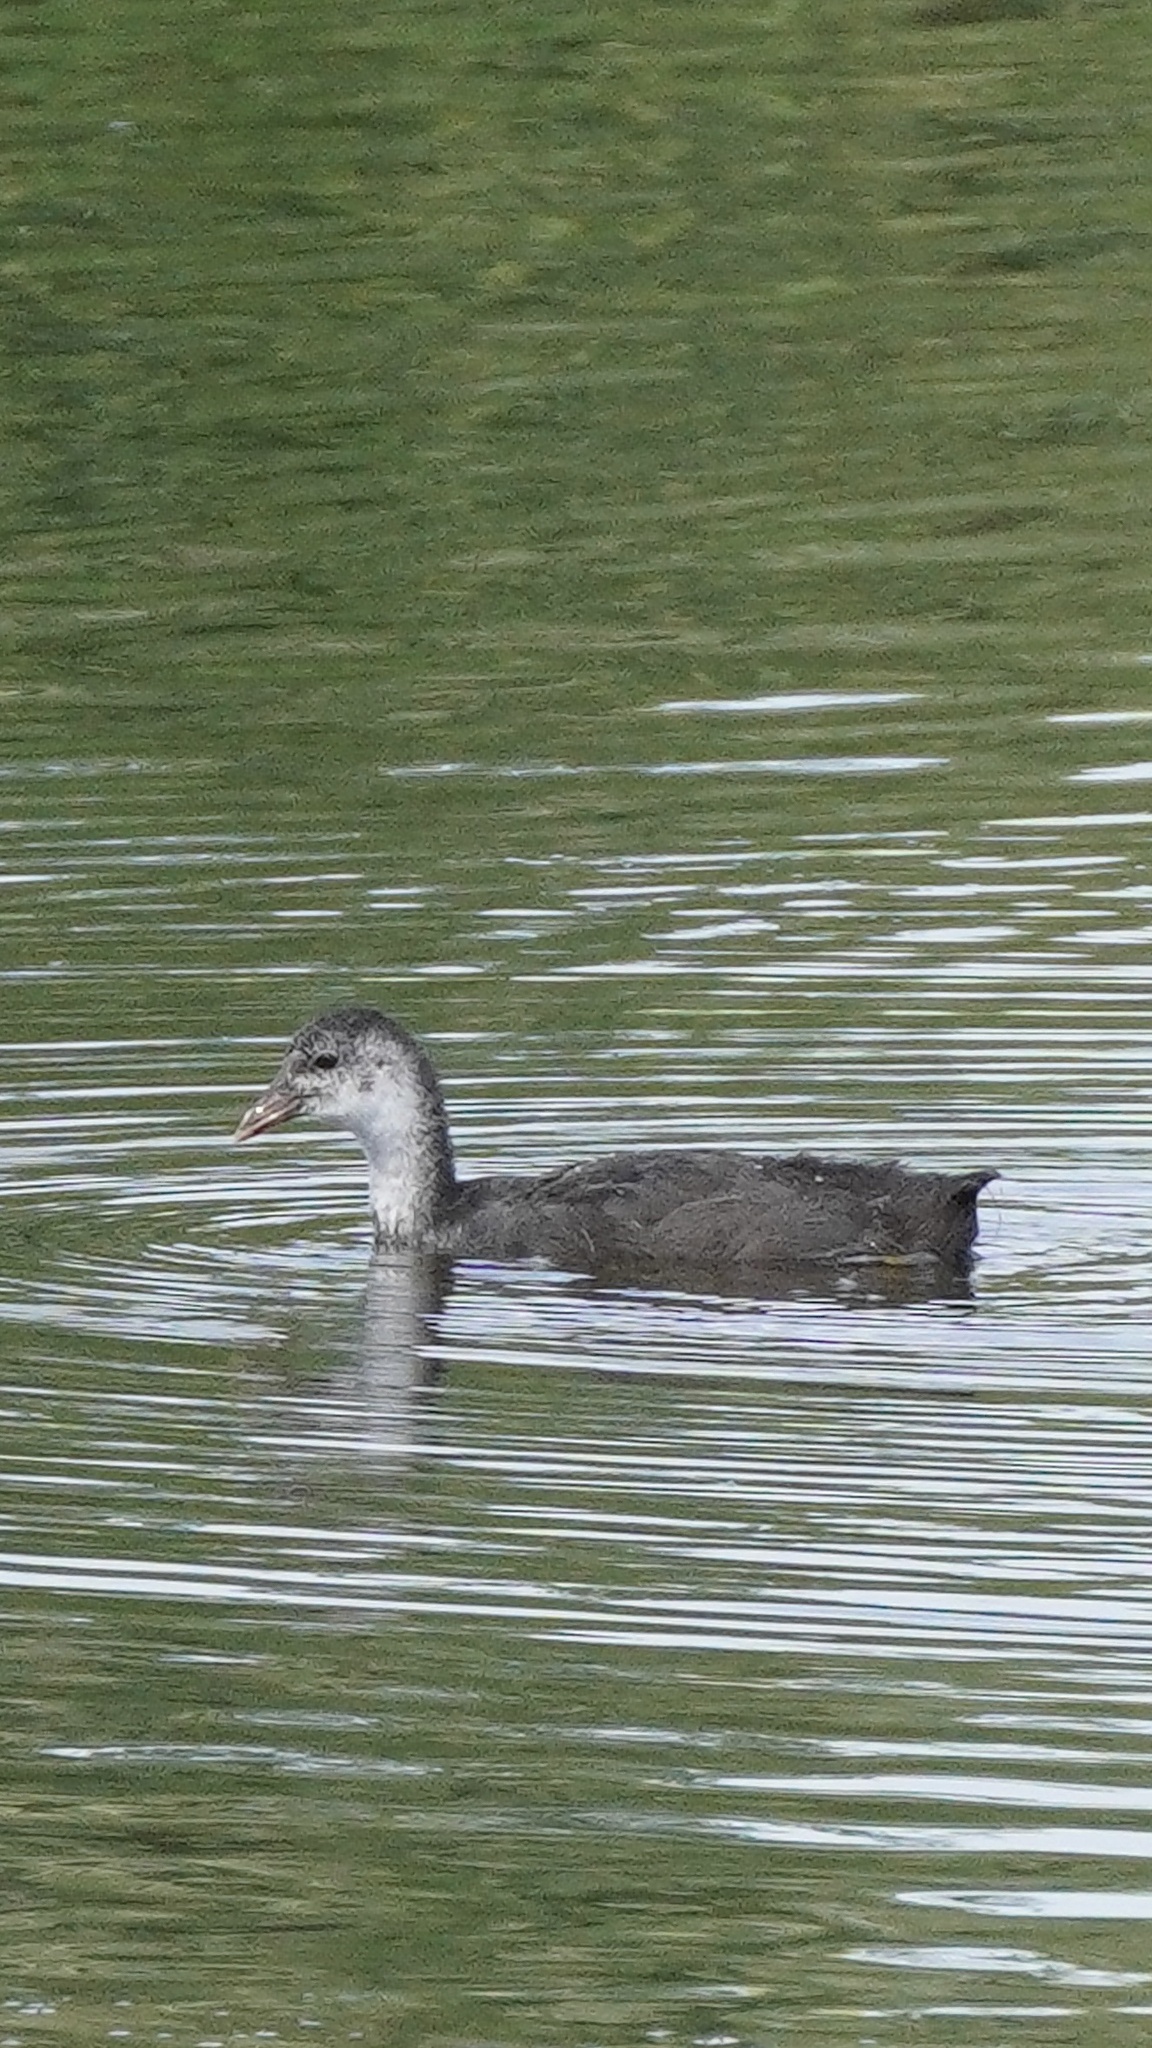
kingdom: Animalia
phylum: Chordata
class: Aves
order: Gruiformes
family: Rallidae
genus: Fulica
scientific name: Fulica atra
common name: Eurasian coot
